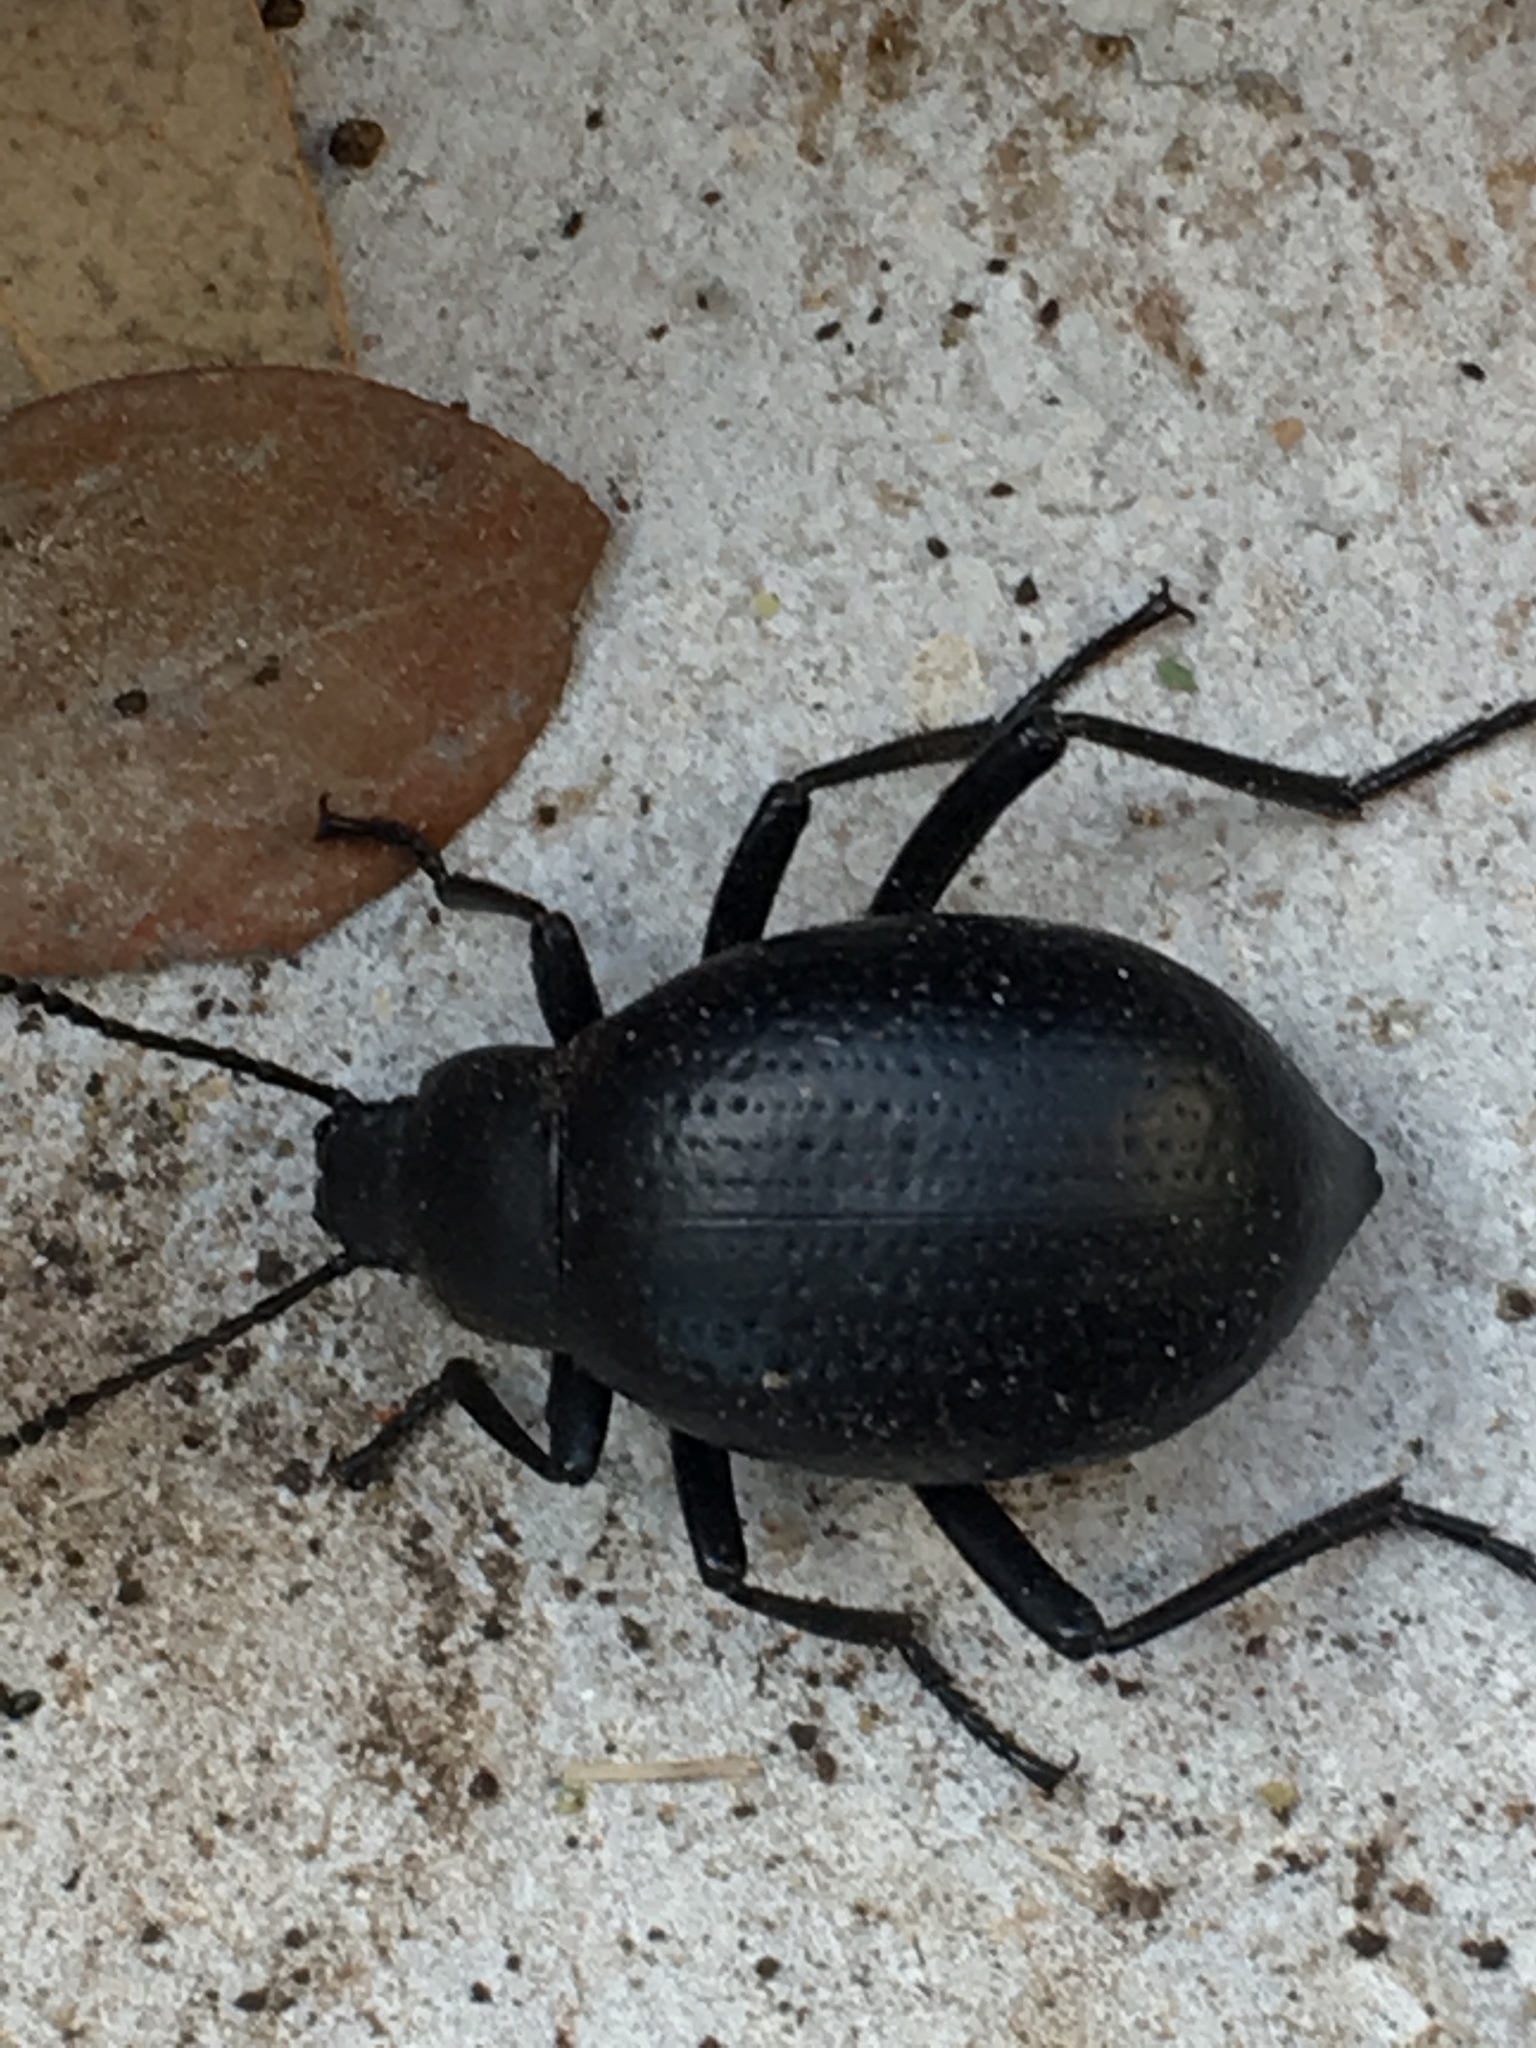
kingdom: Animalia
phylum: Arthropoda
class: Insecta
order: Coleoptera
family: Tenebrionidae
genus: Eleodes
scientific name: Eleodes goryi
